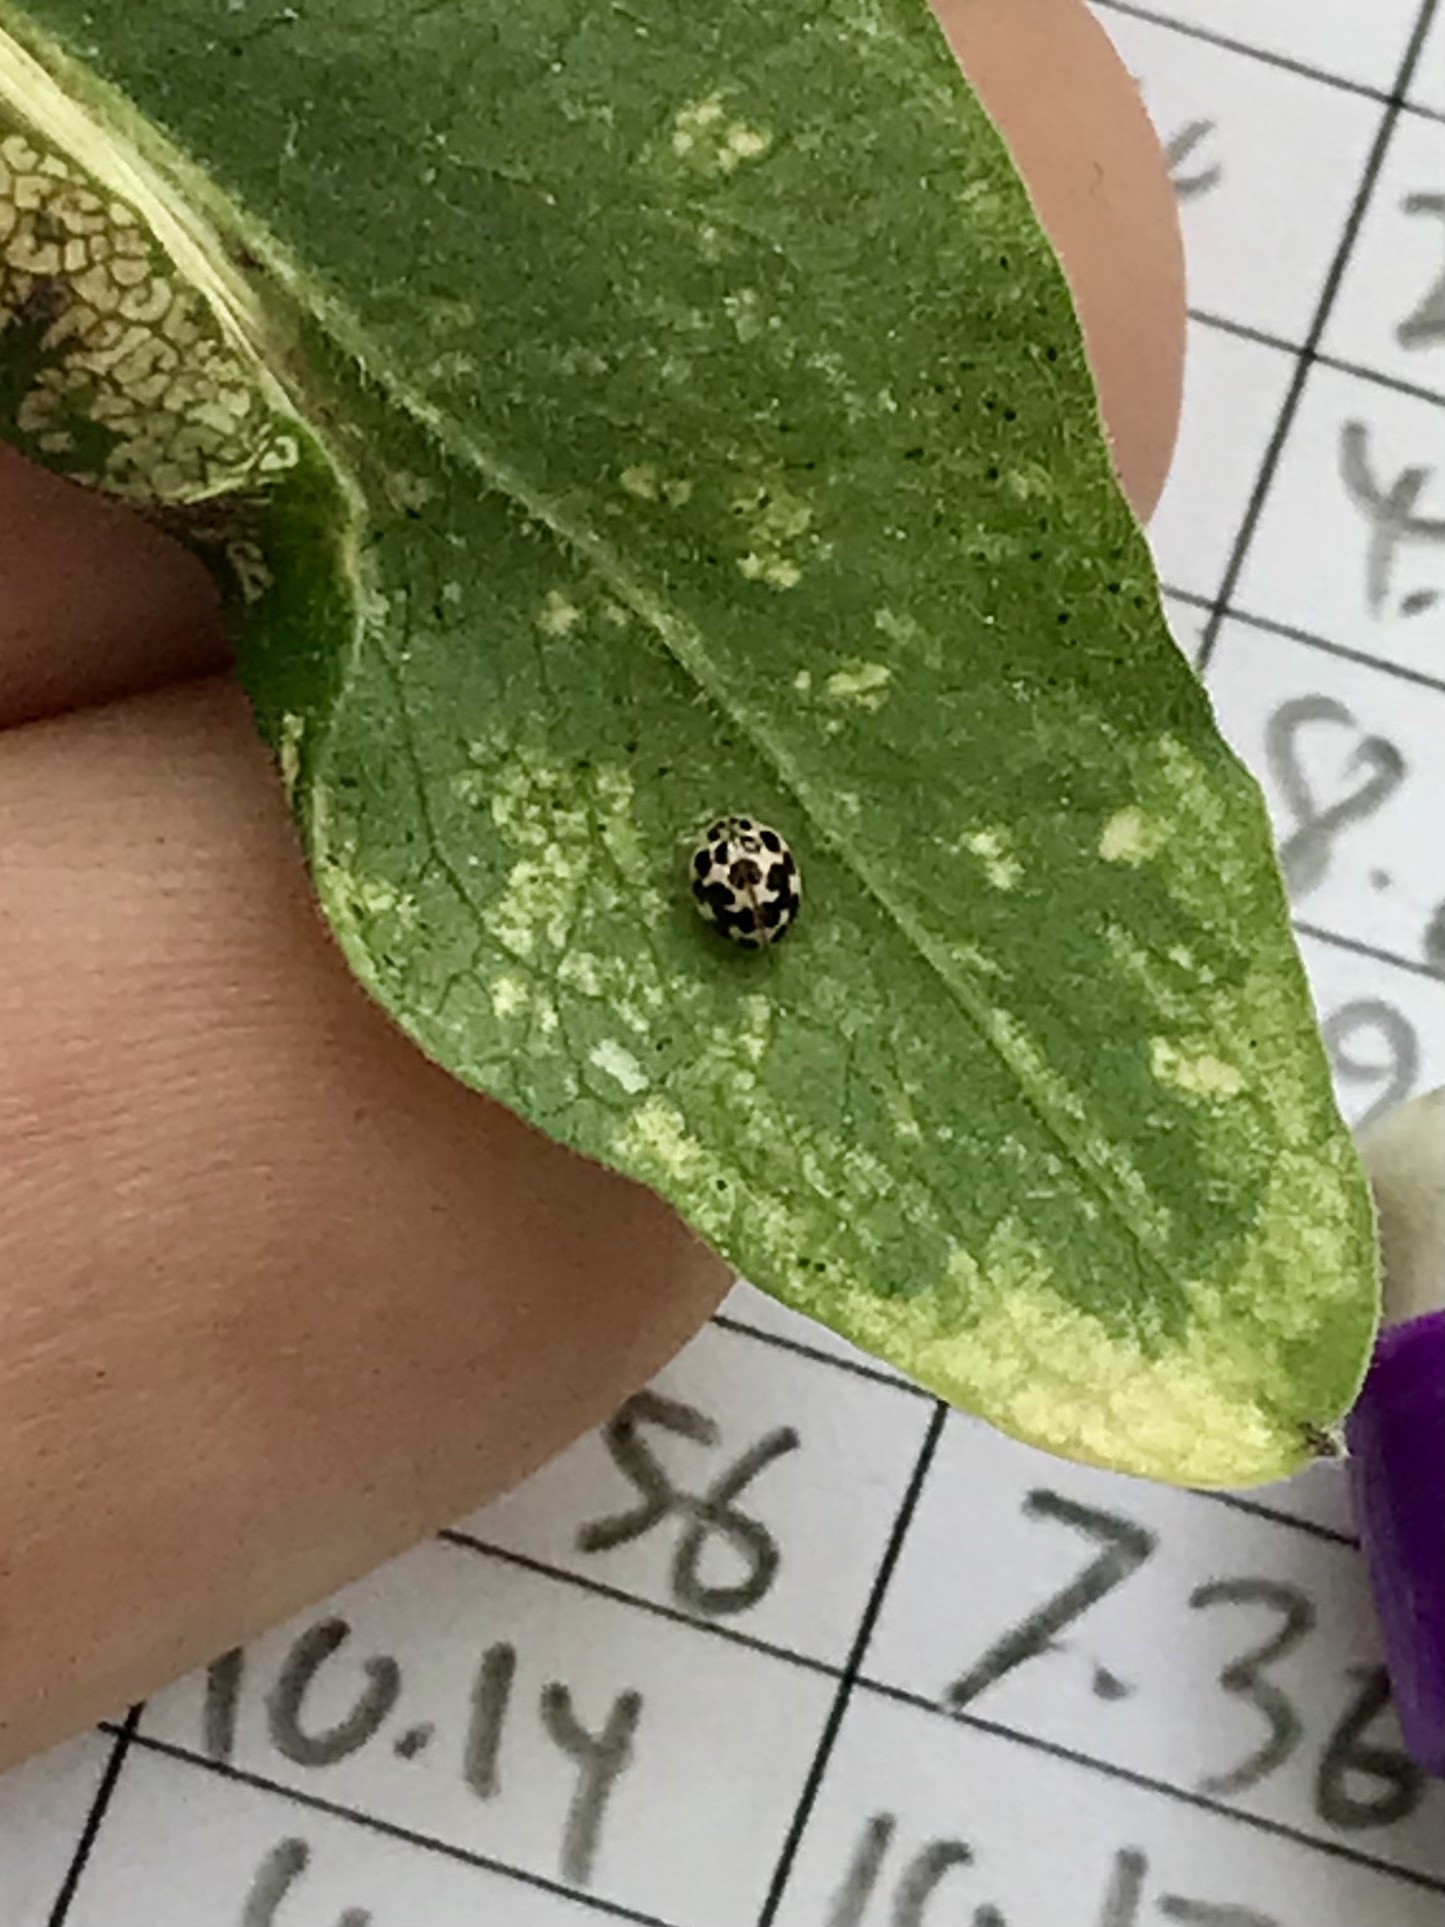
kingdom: Animalia
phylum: Arthropoda
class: Insecta
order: Coleoptera
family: Coccinellidae
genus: Psyllobora
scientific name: Psyllobora vigintimaculata
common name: Ladybird beetle
